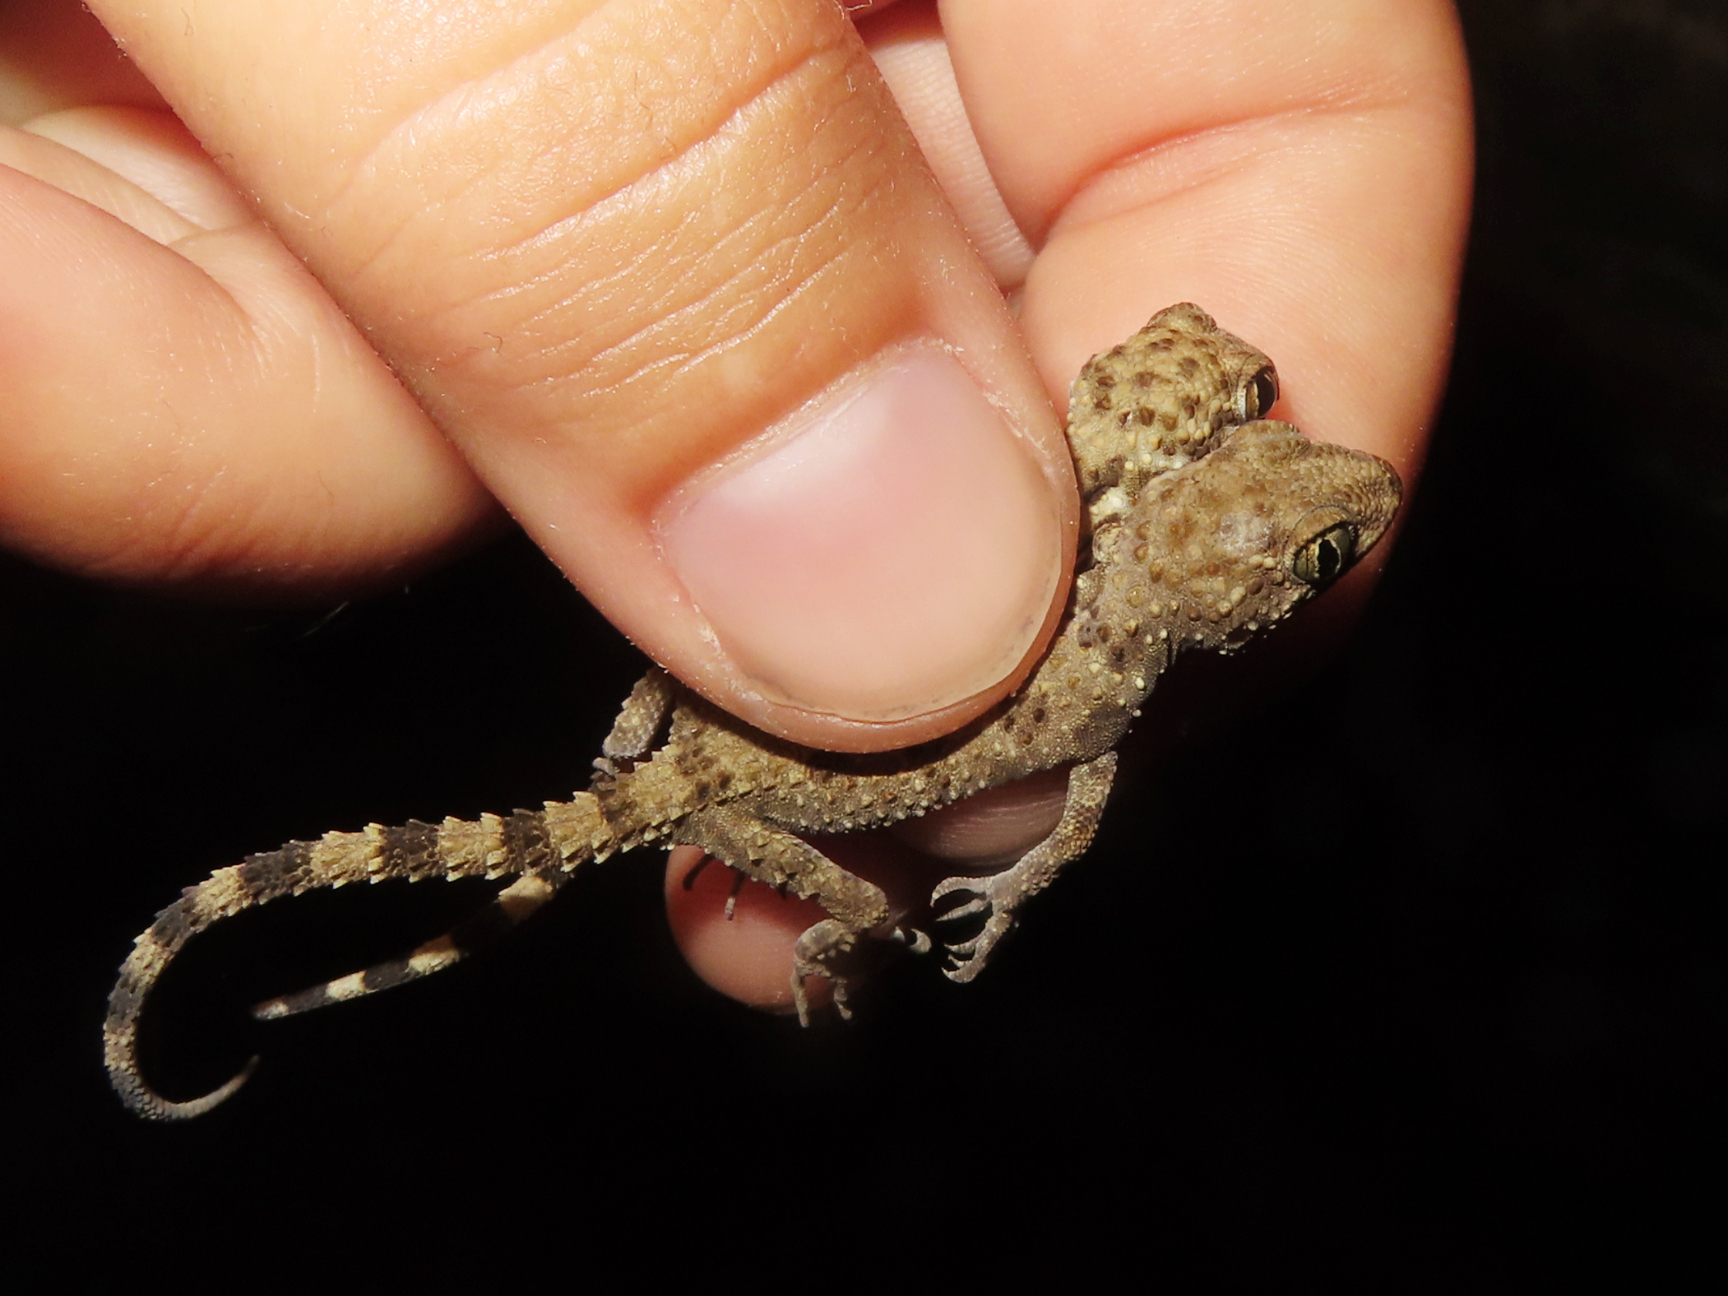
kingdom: Animalia
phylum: Chordata
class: Squamata
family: Gekkonidae
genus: Tenuidactylus
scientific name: Tenuidactylus caspius
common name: Caspian bent-toed gecko
